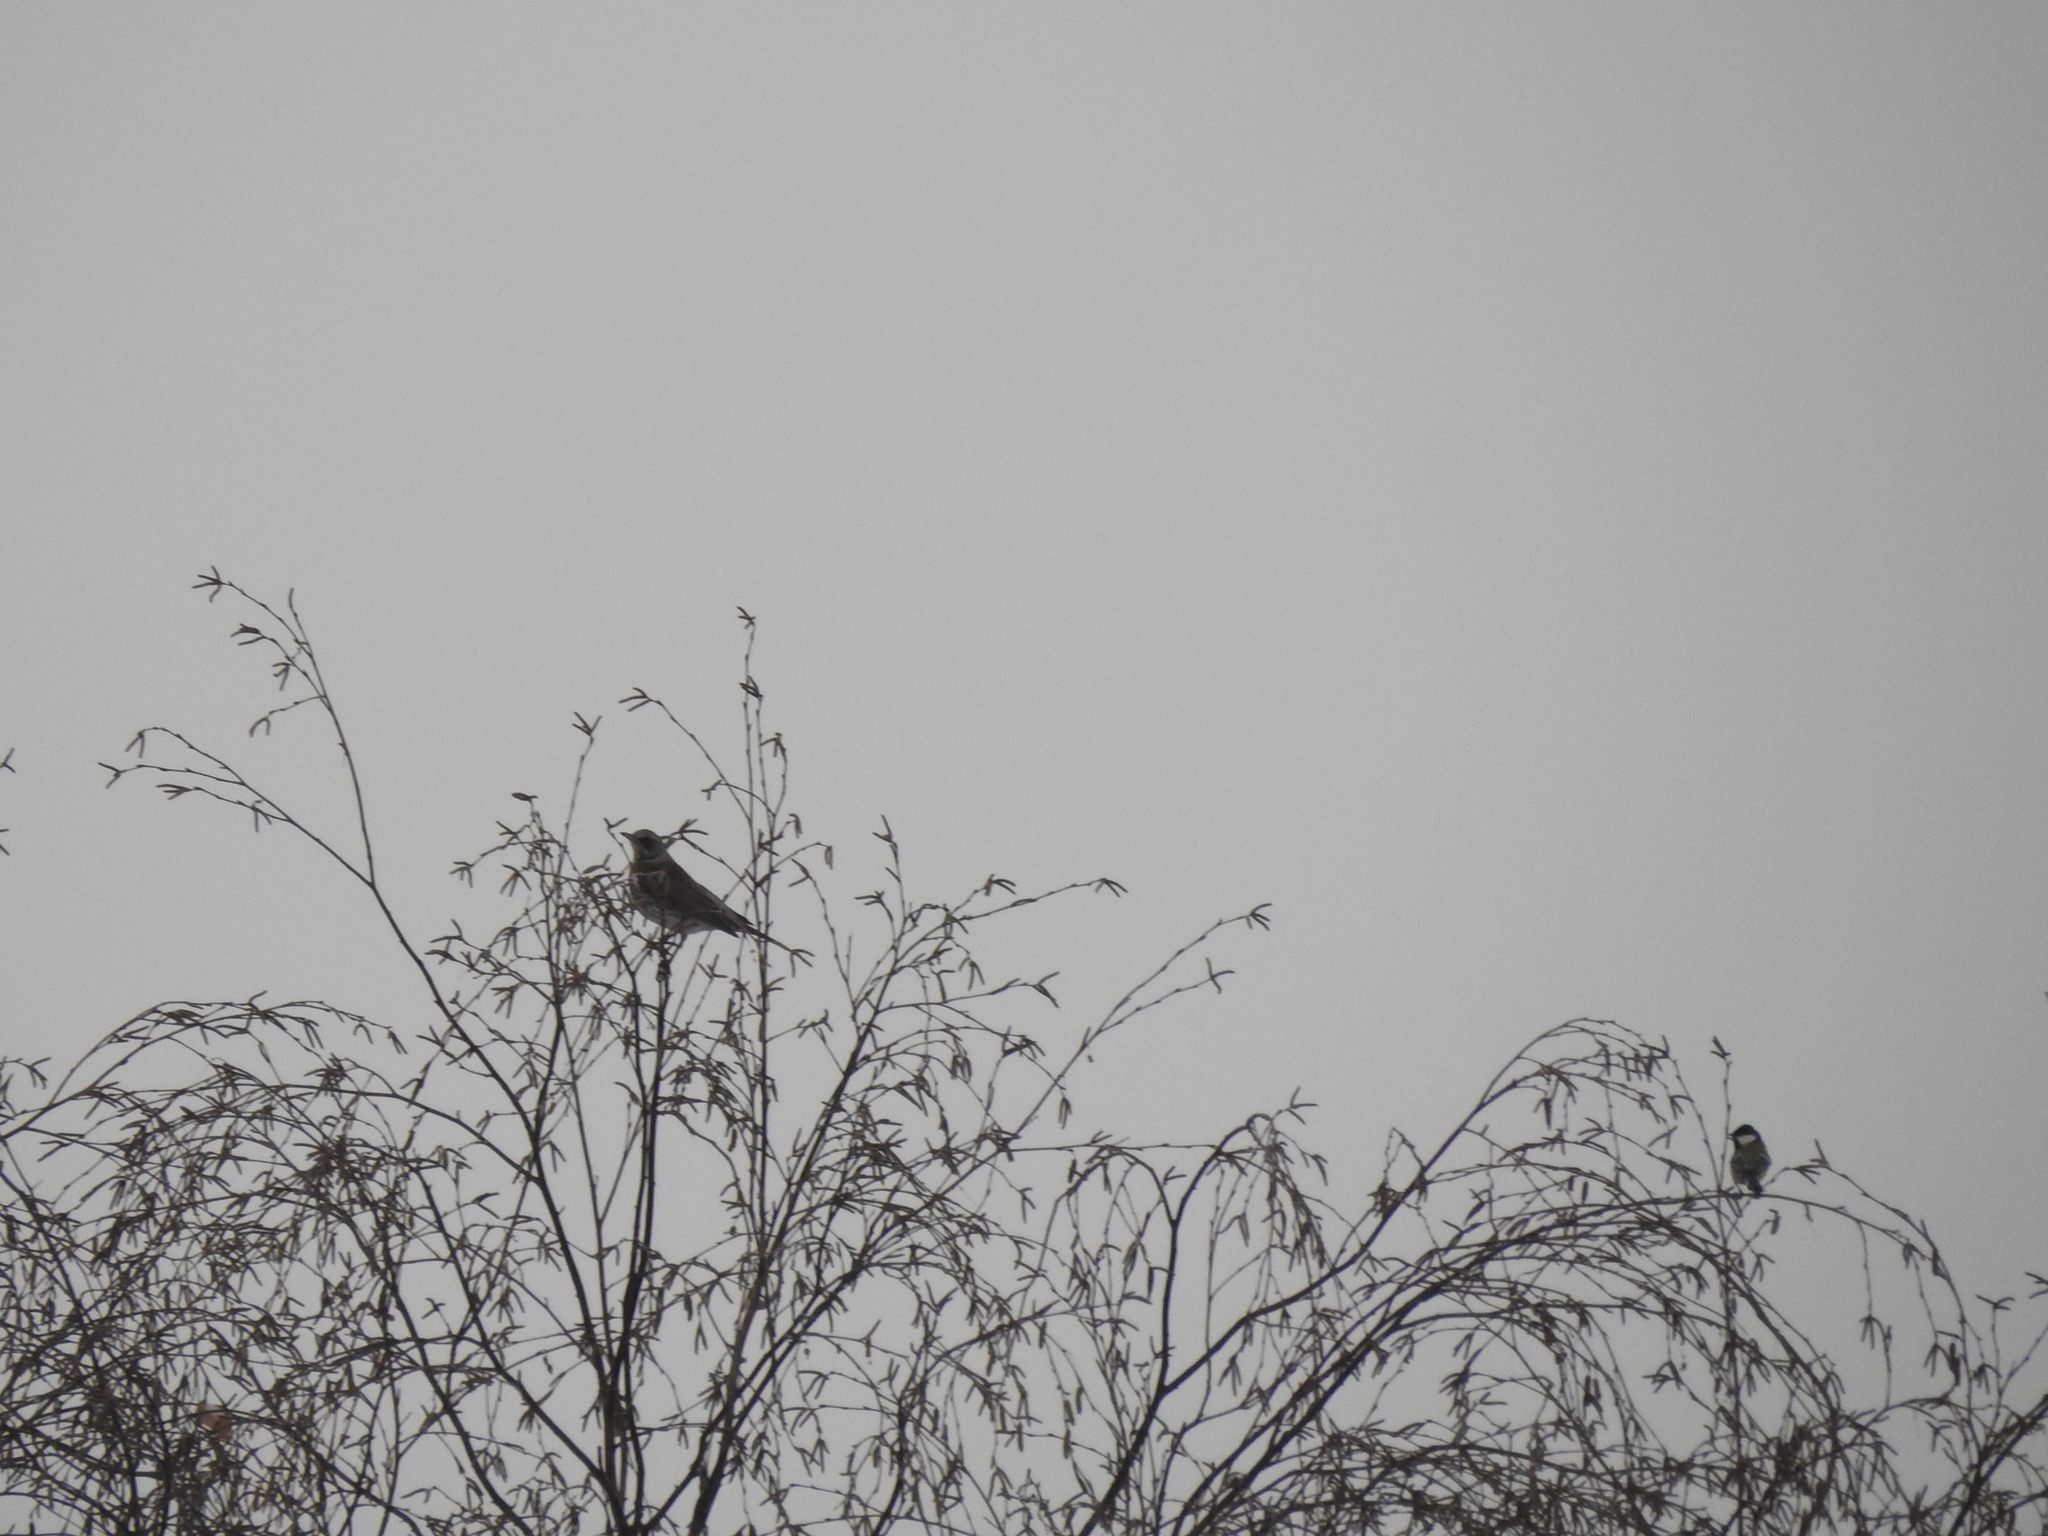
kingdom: Animalia
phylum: Chordata
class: Aves
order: Passeriformes
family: Turdidae
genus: Turdus
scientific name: Turdus pilaris
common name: Fieldfare
